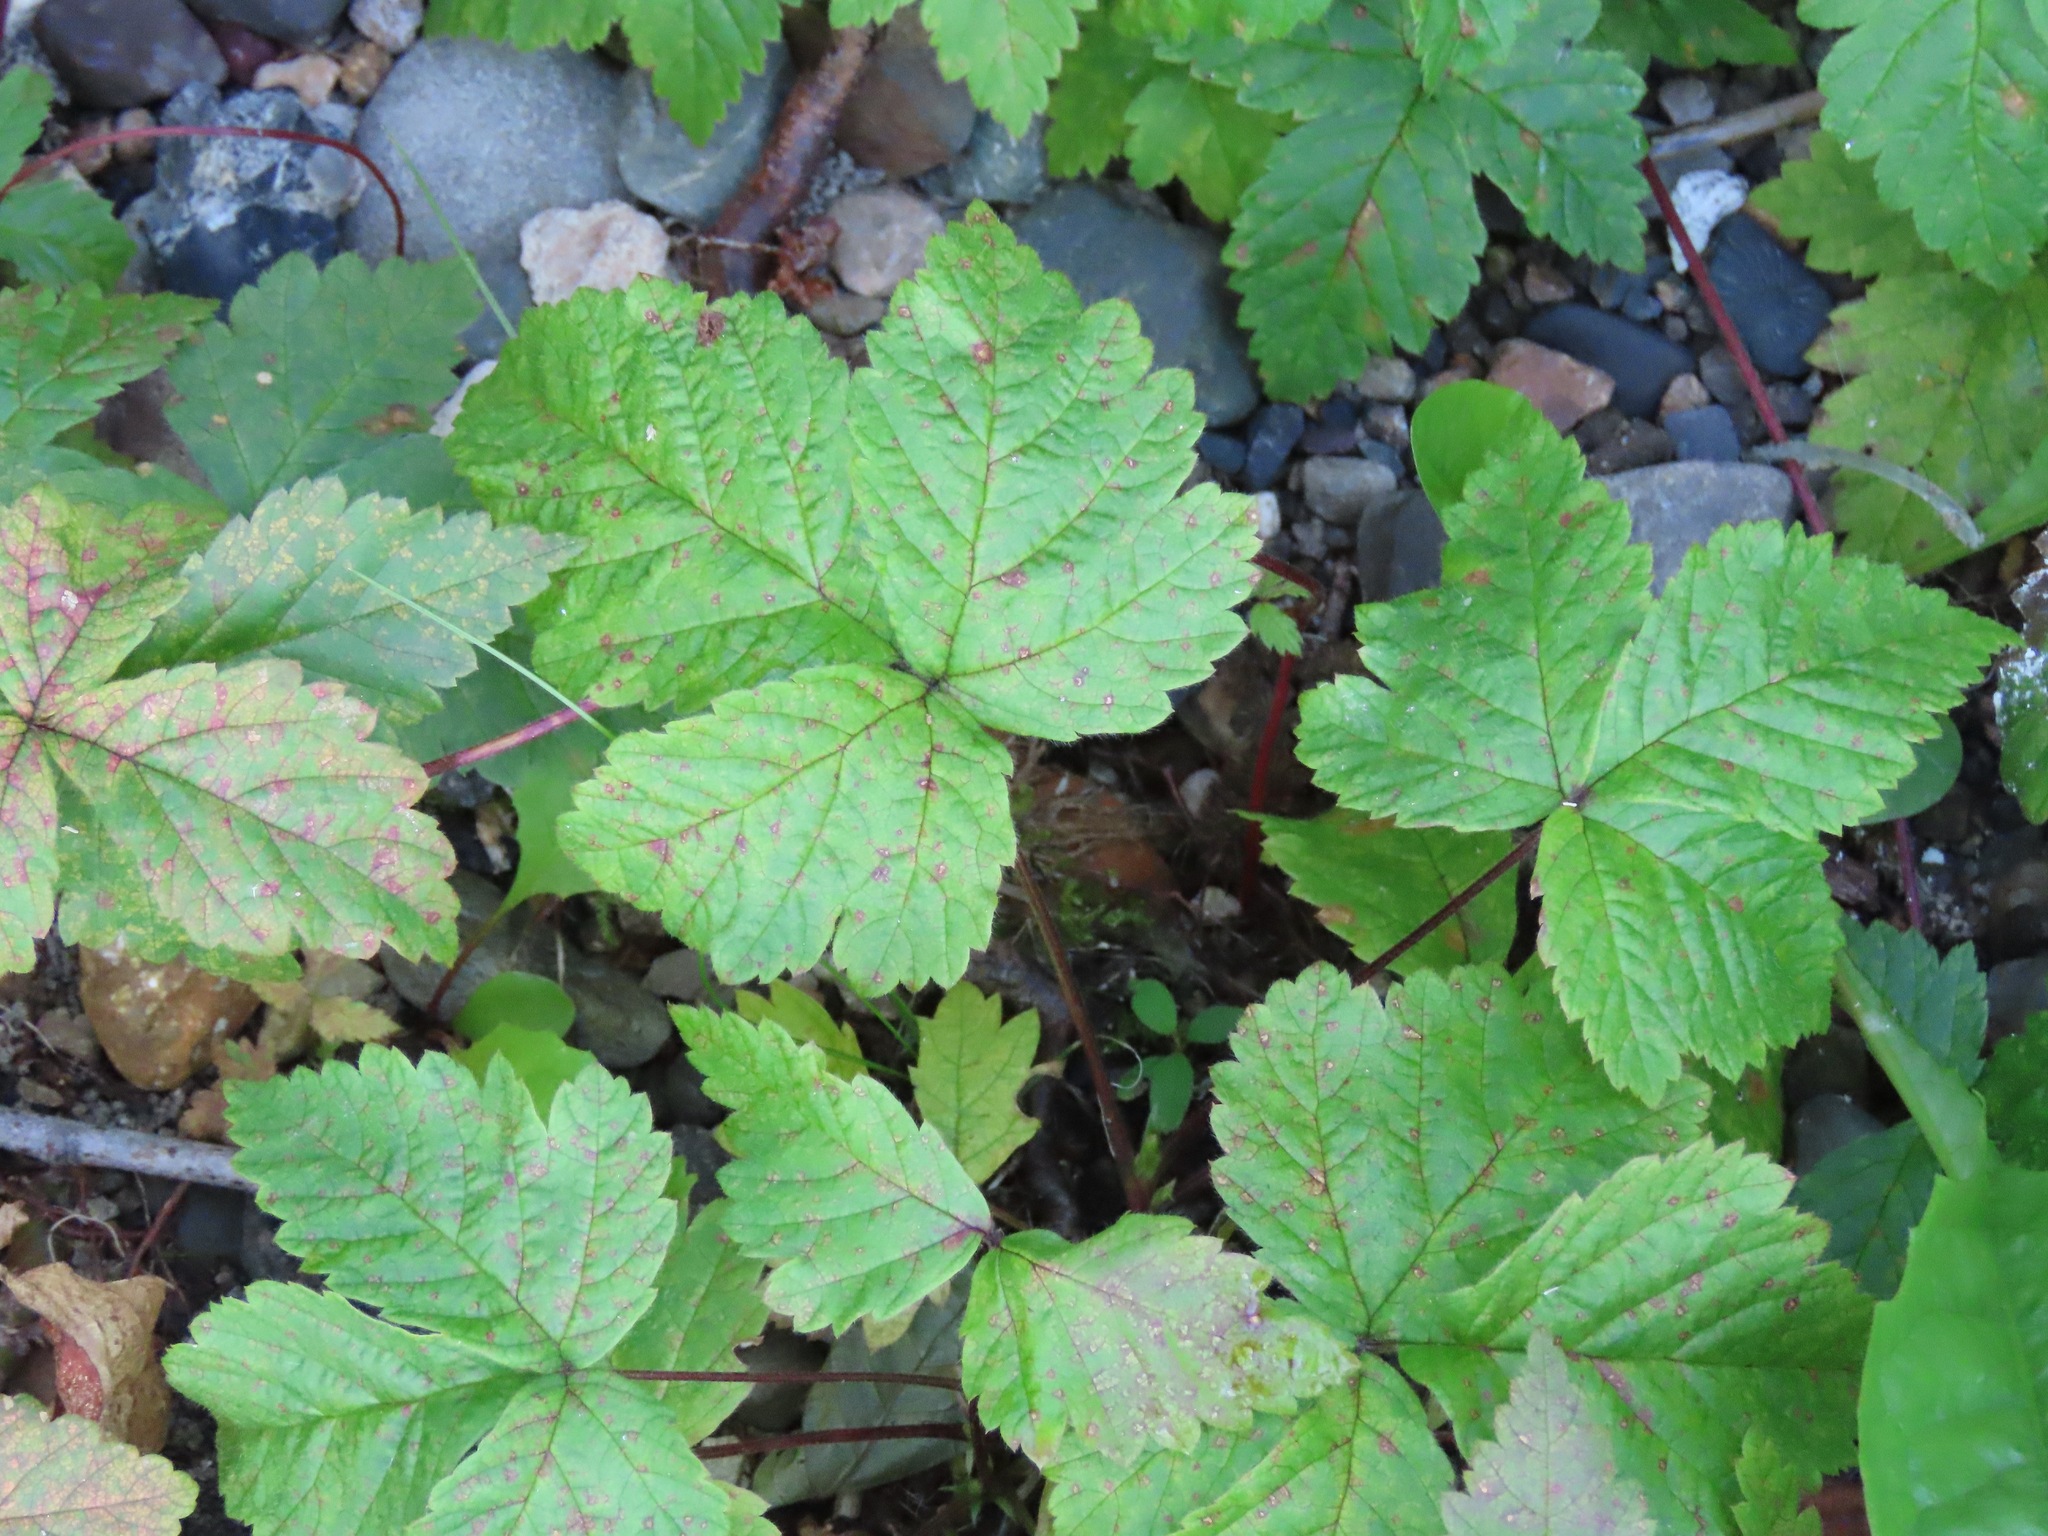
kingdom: Plantae
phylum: Tracheophyta
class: Magnoliopsida
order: Rosales
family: Rosaceae
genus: Rubus
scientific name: Rubus pubescens
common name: Dwarf raspberry
